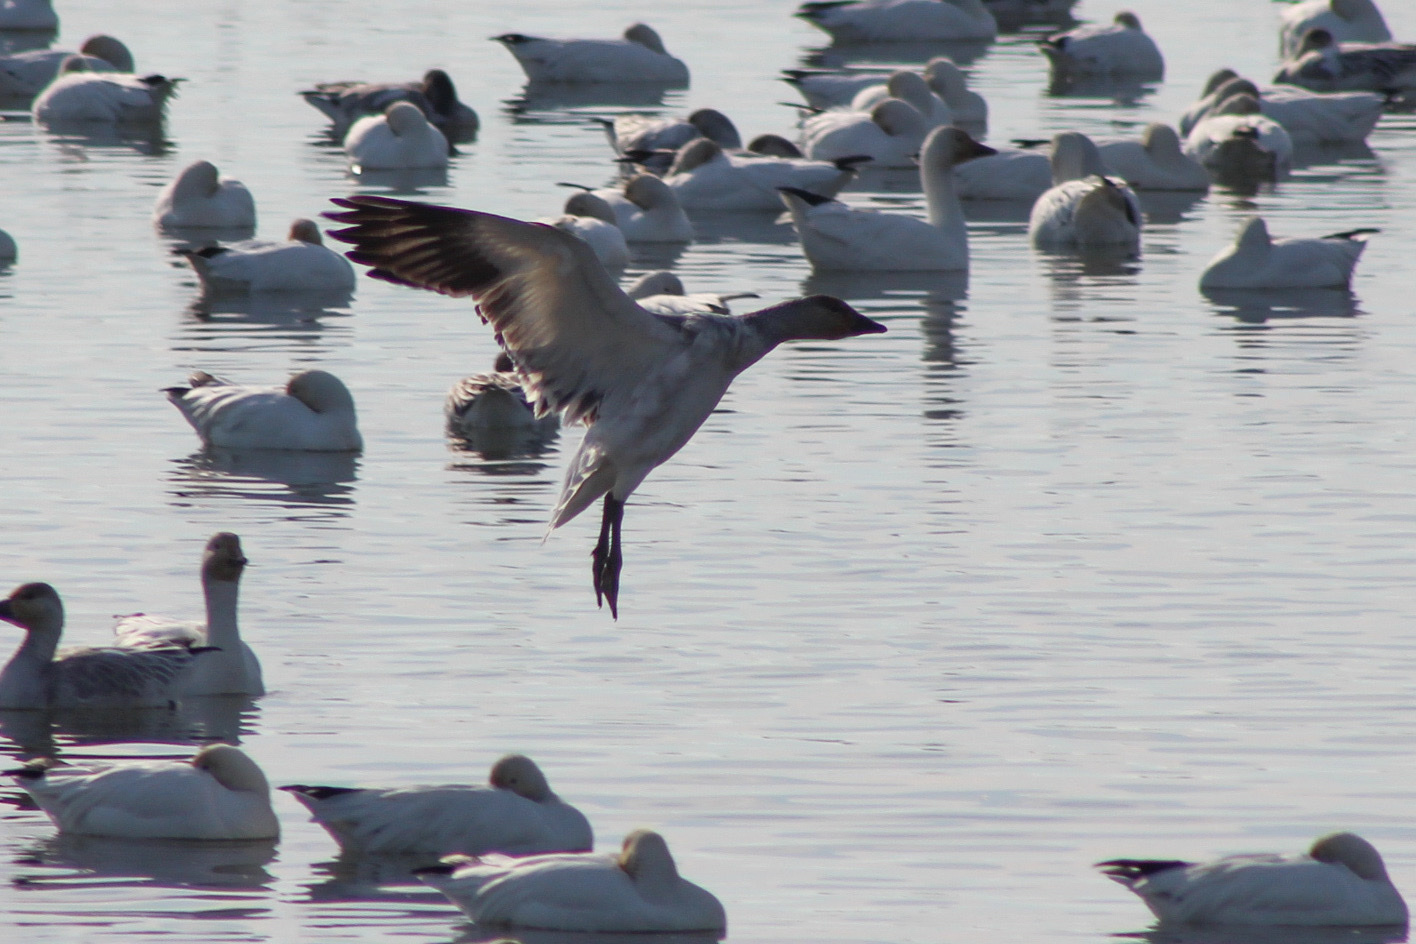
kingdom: Animalia
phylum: Chordata
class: Aves
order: Anseriformes
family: Anatidae
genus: Anser
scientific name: Anser caerulescens
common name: Snow goose
